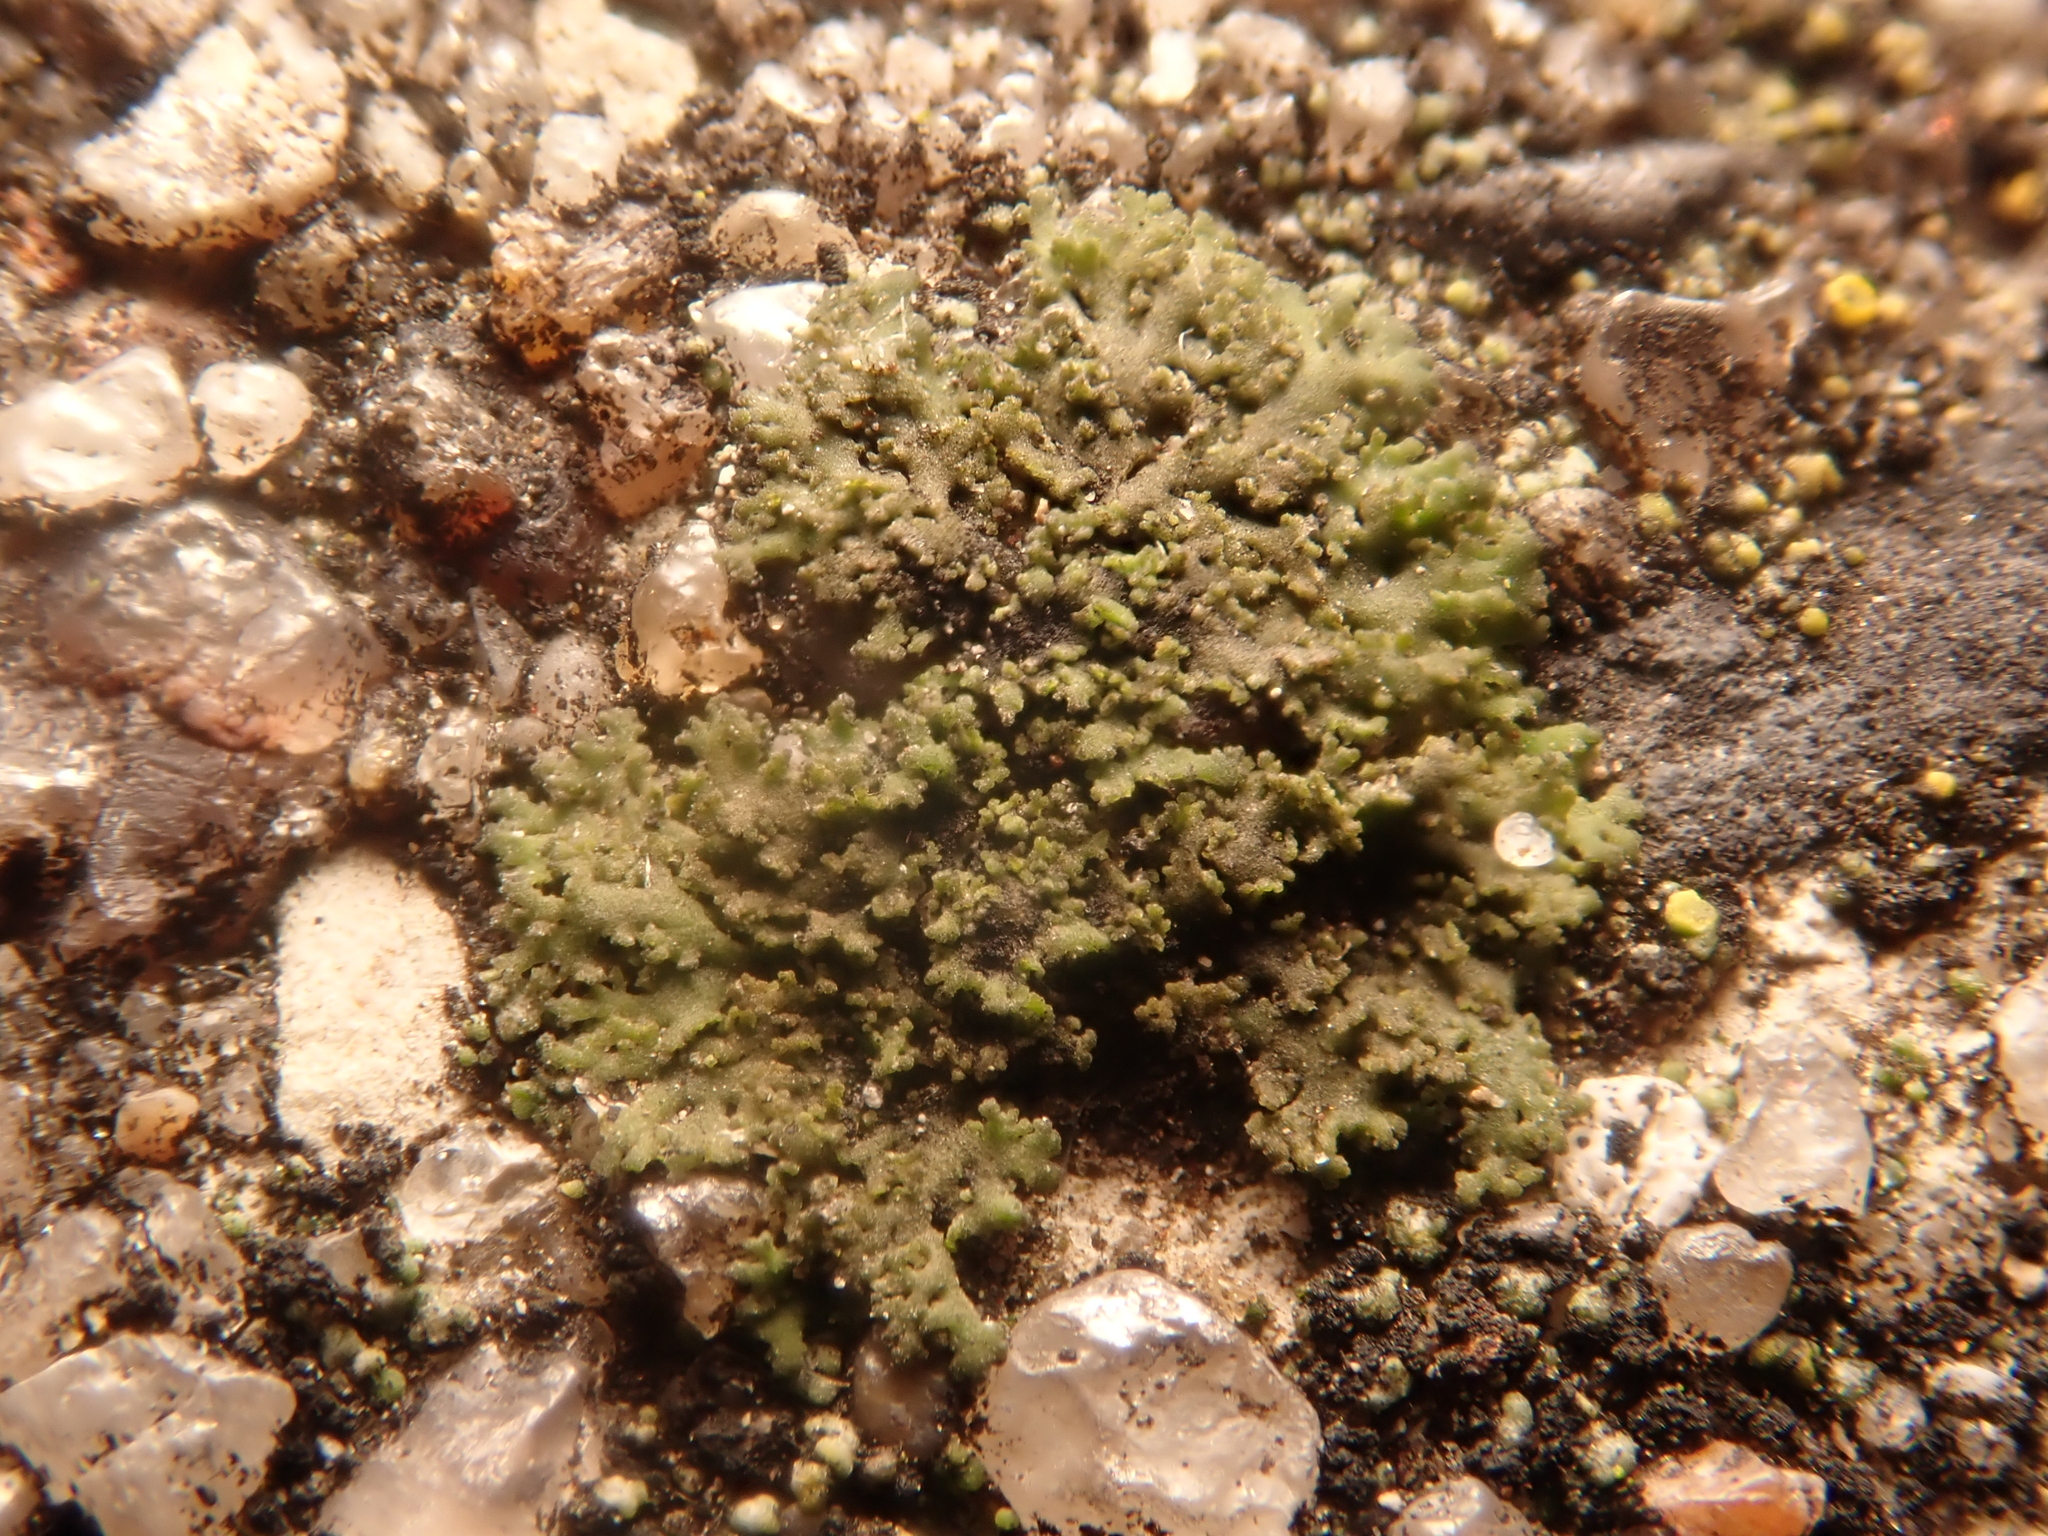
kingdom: Fungi
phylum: Ascomycota
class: Lecanoromycetes
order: Caliciales
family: Physciaceae
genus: Physciella
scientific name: Physciella nigricans
